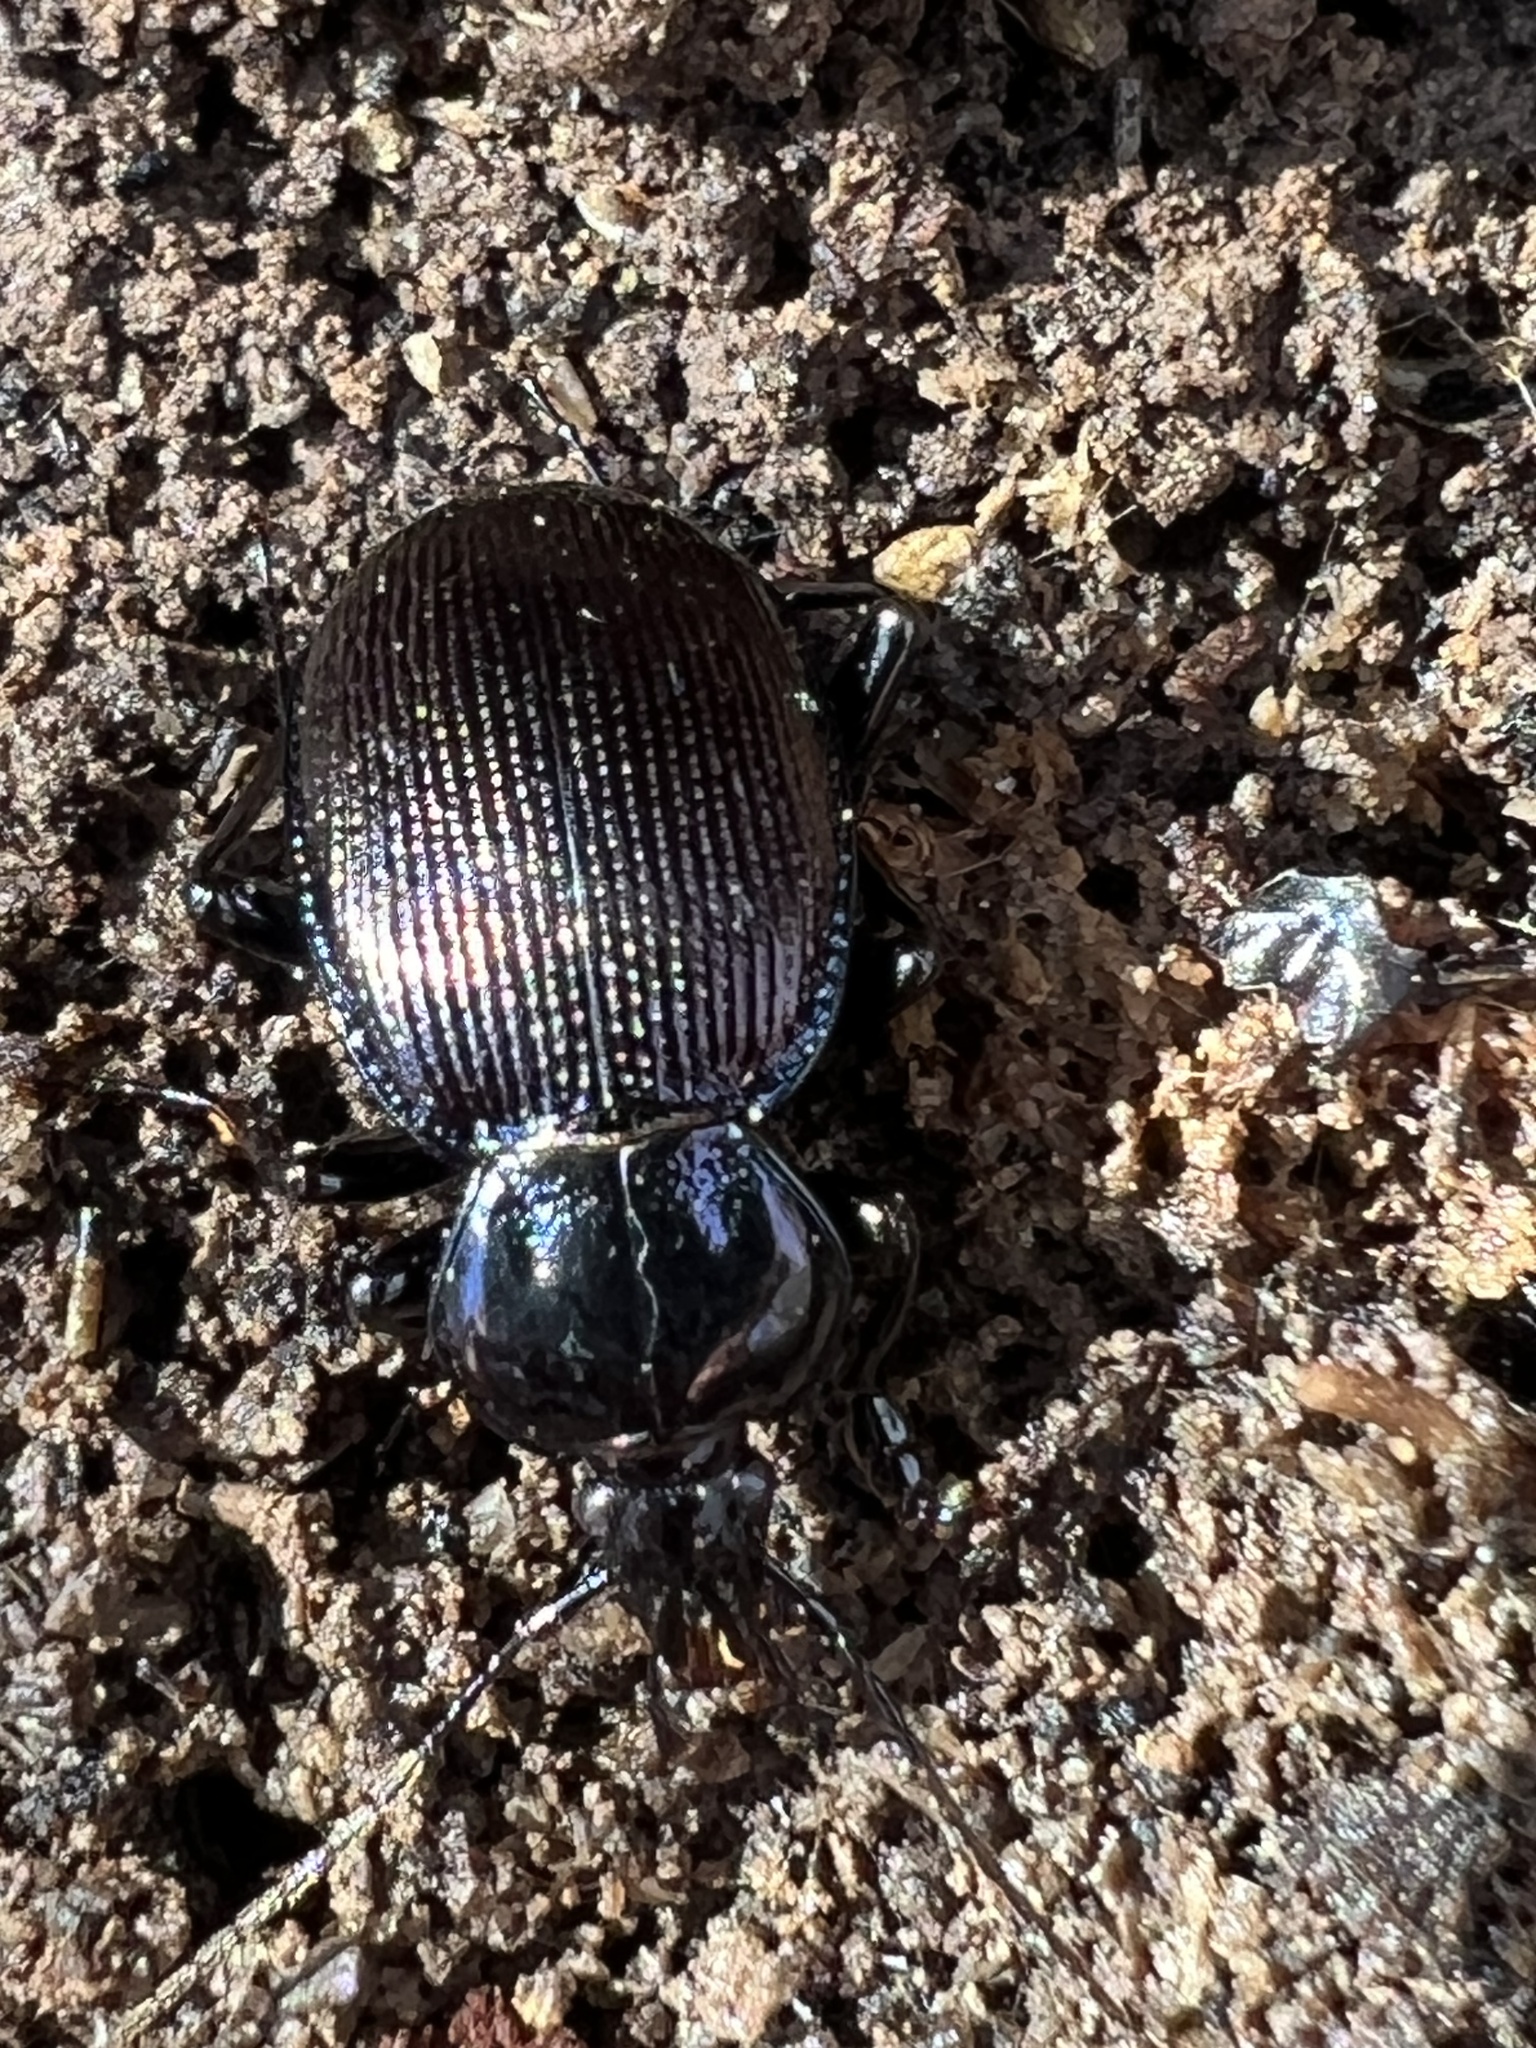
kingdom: Animalia
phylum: Arthropoda
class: Insecta
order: Coleoptera
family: Carabidae
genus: Sphaeroderus
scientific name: Sphaeroderus stenostomus
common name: Small snail-eating ground beetle
